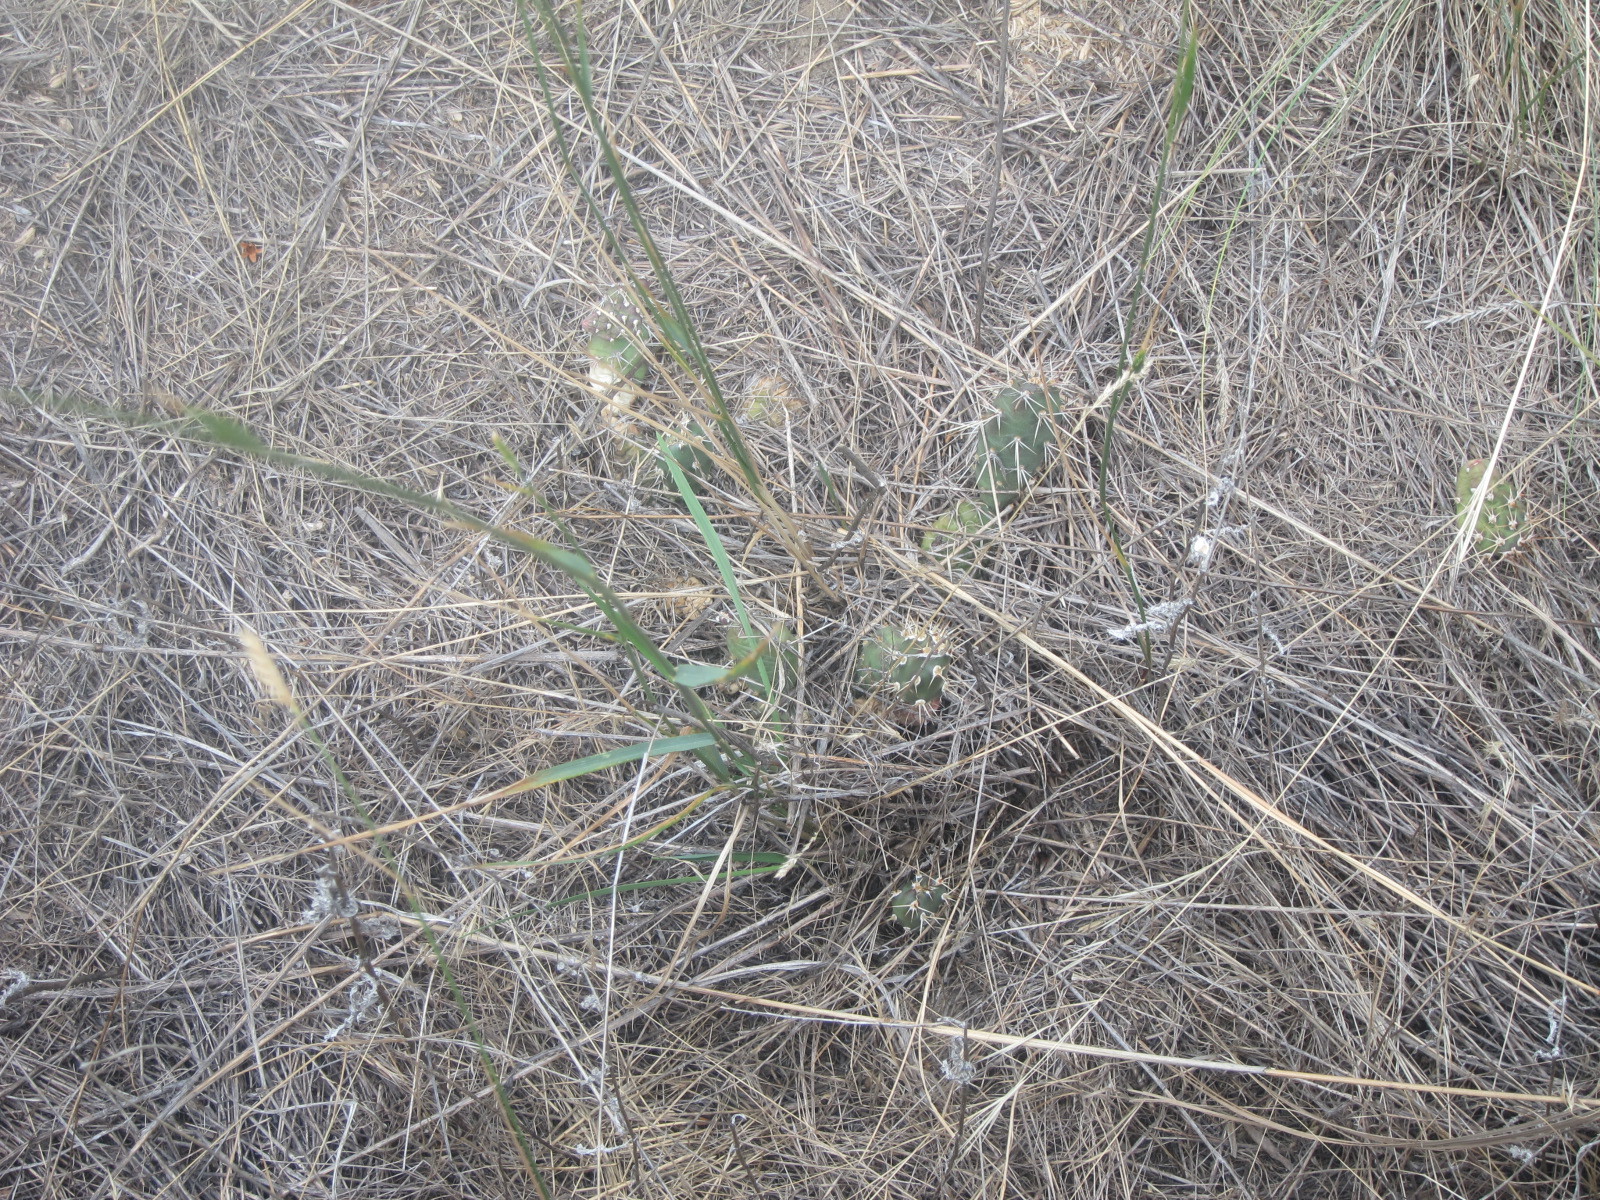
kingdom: Plantae
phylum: Tracheophyta
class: Magnoliopsida
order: Caryophyllales
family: Cactaceae
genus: Opuntia
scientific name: Opuntia fragilis
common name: Brittle cactus
